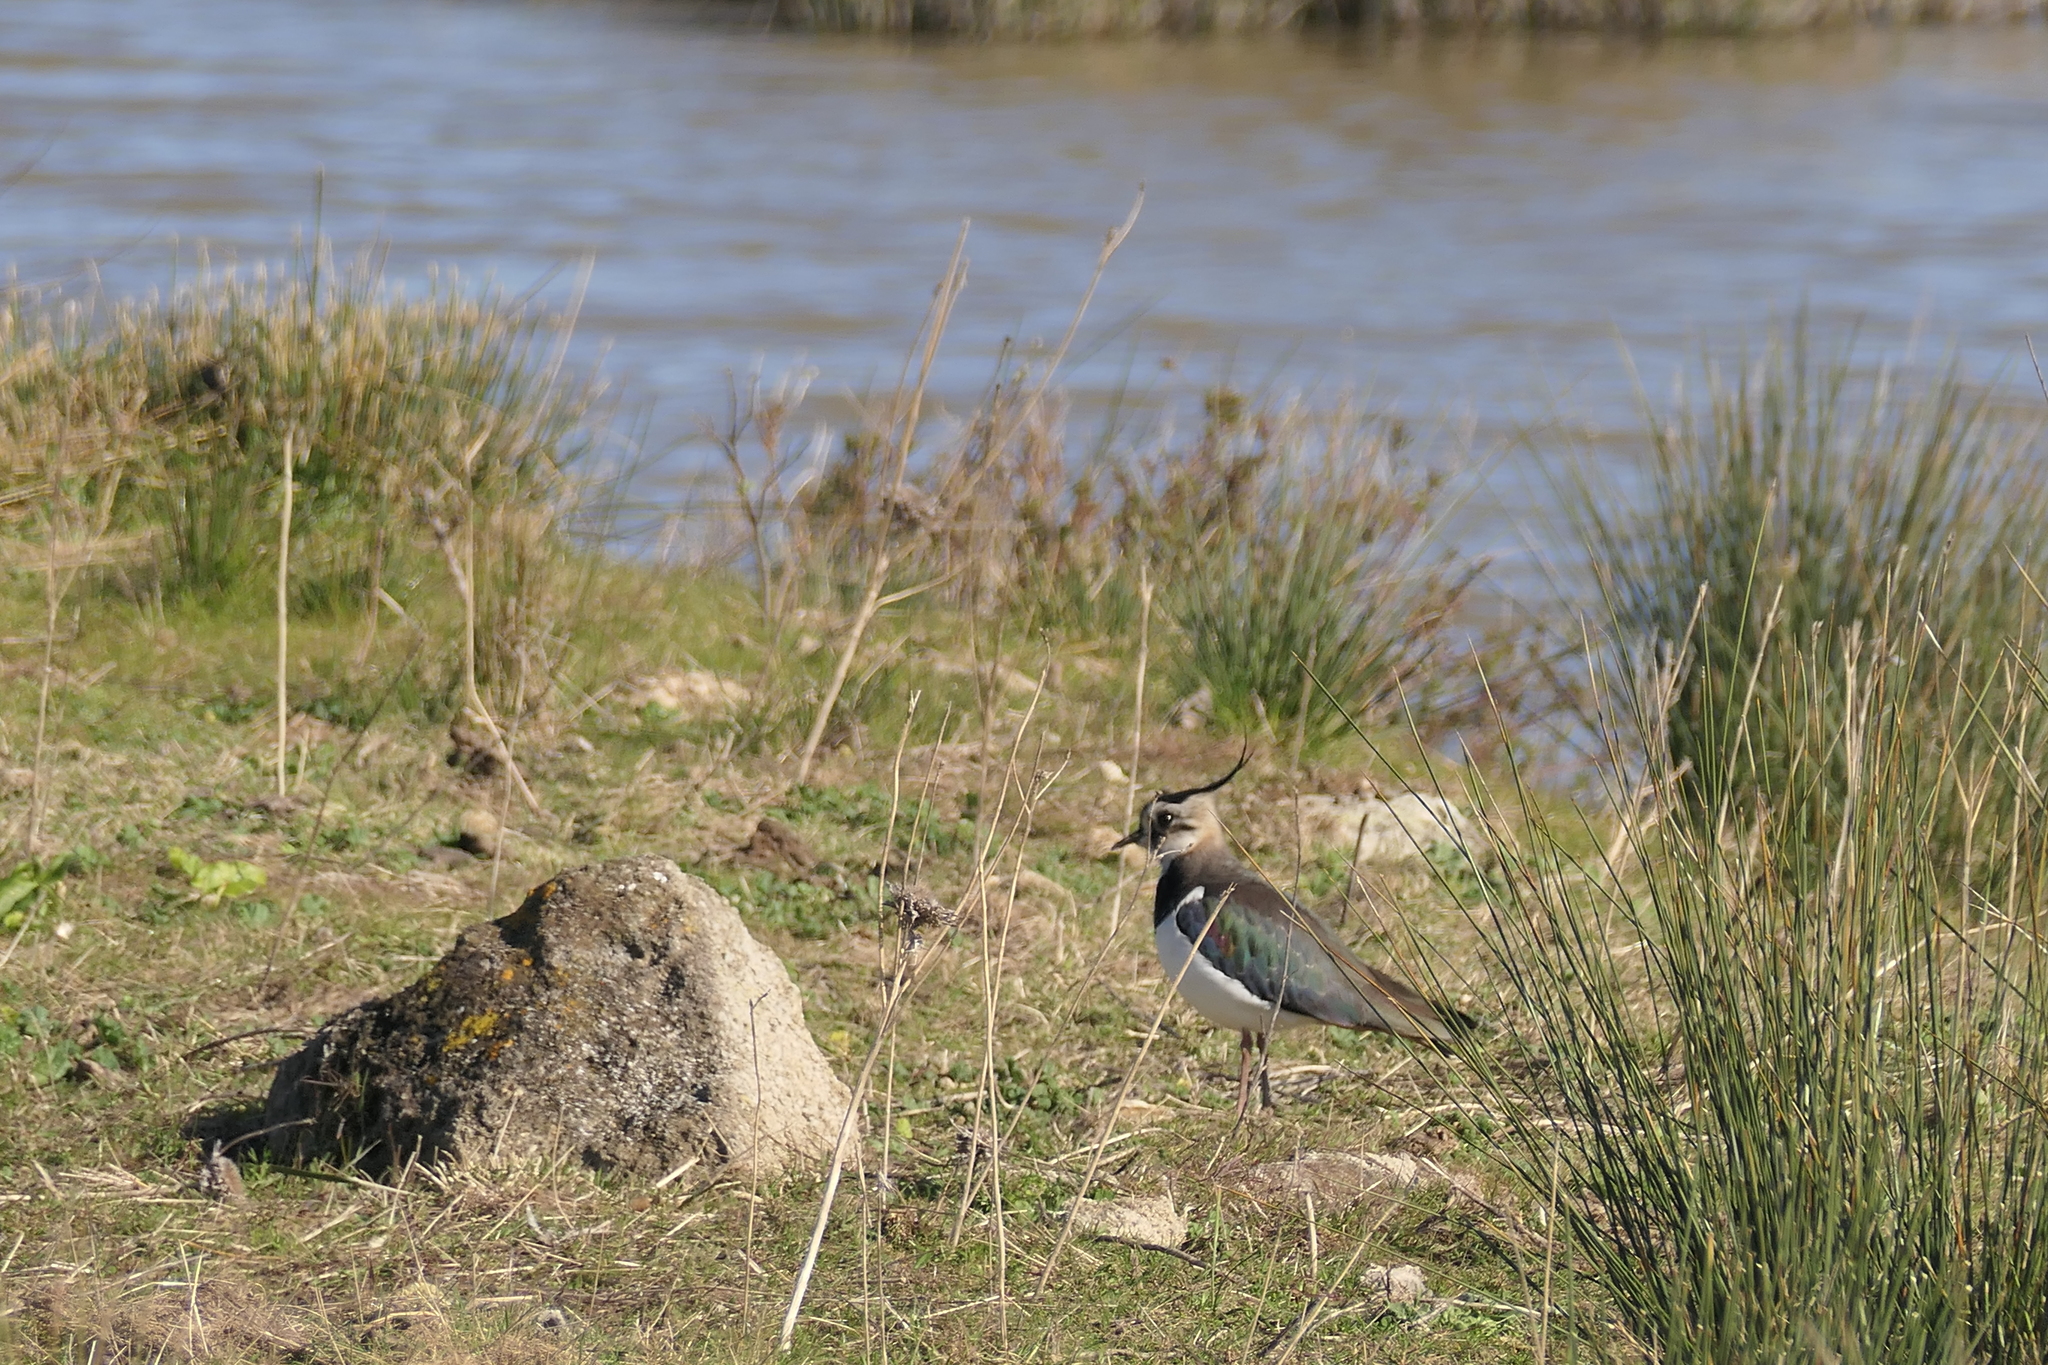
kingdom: Animalia
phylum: Chordata
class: Aves
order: Charadriiformes
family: Charadriidae
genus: Vanellus
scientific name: Vanellus vanellus
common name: Northern lapwing
